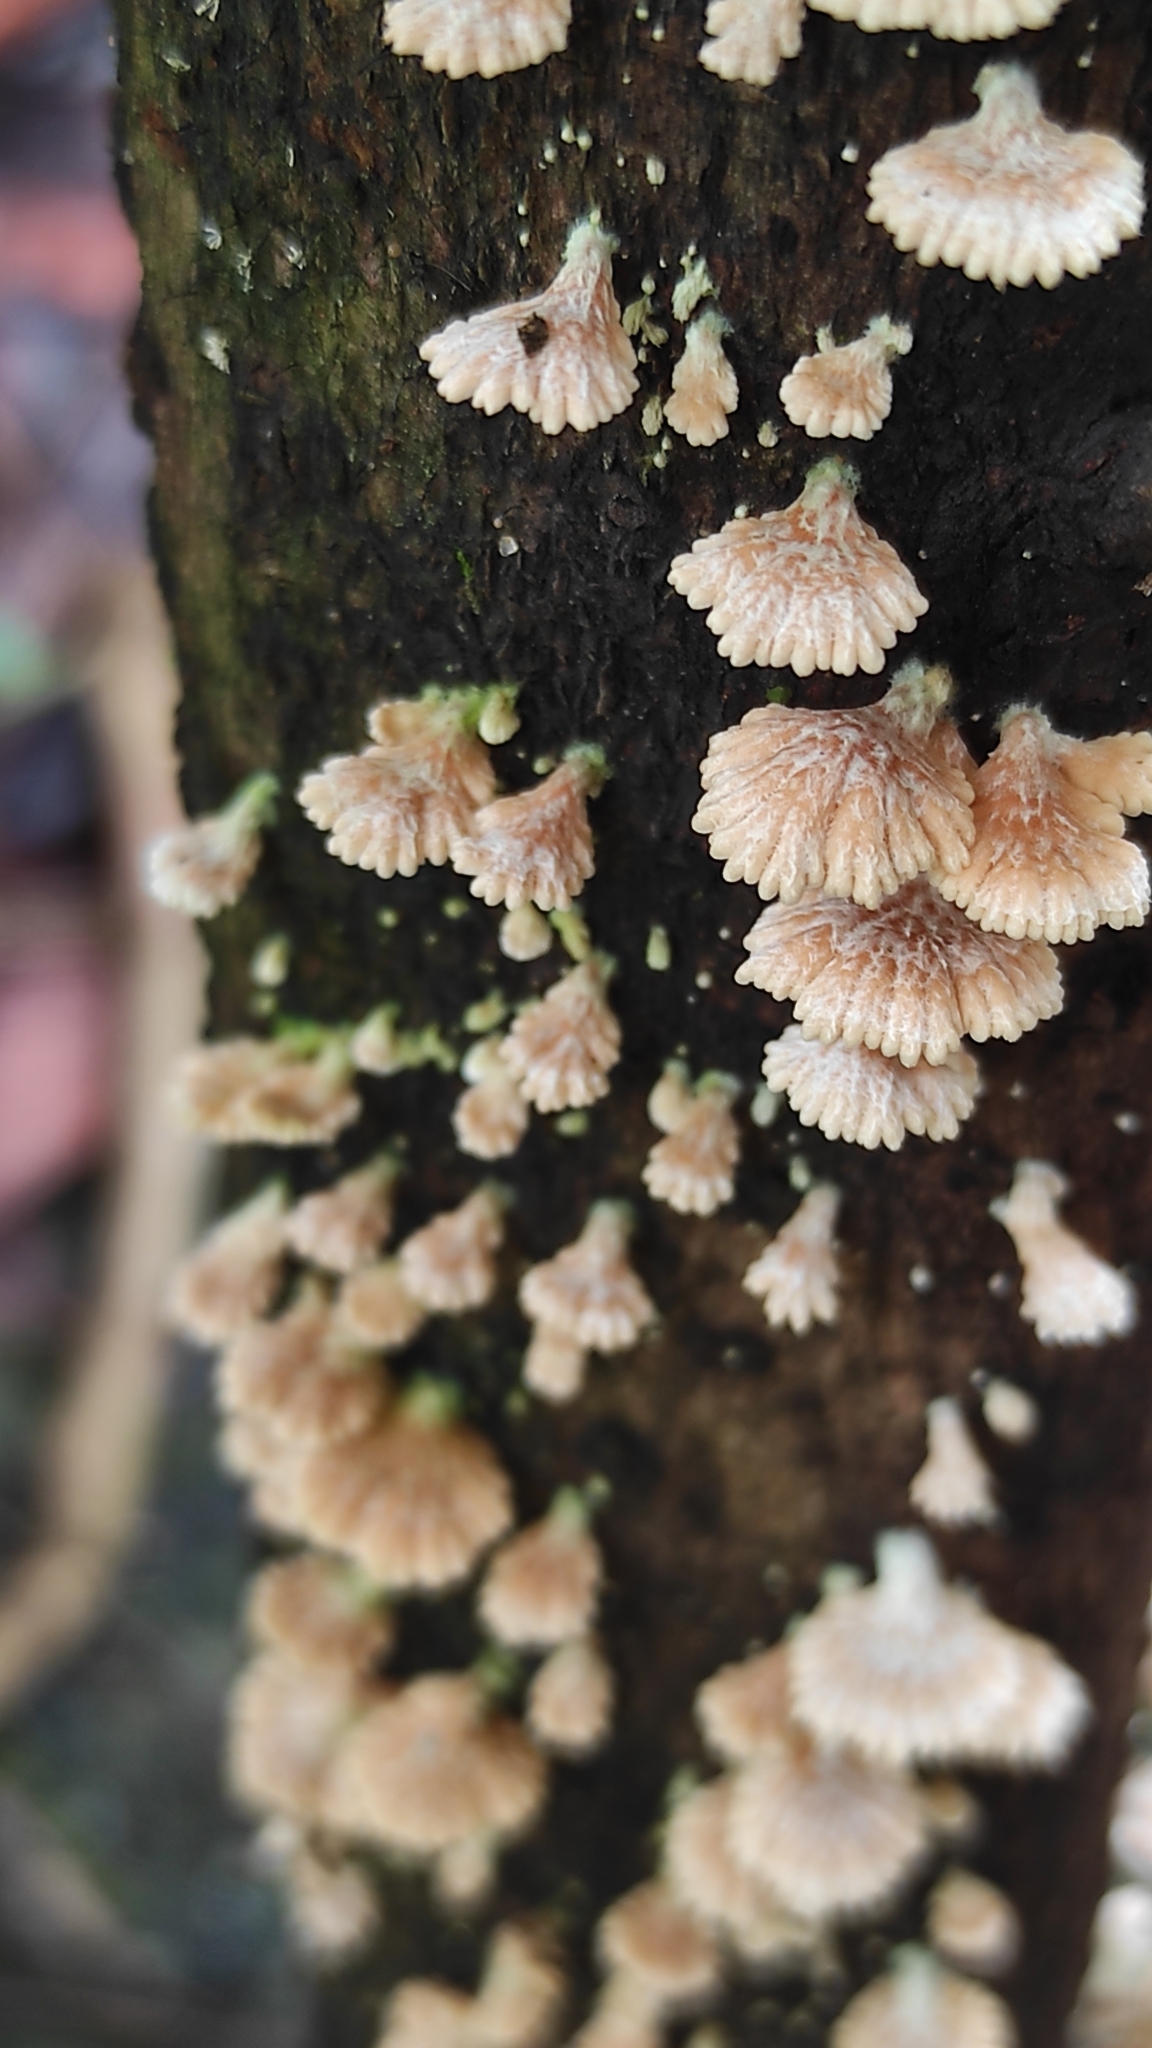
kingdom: Fungi
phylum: Basidiomycota
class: Agaricomycetes
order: Agaricales
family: Schizophyllaceae
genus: Schizophyllum
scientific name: Schizophyllum commune
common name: Common porecrust
